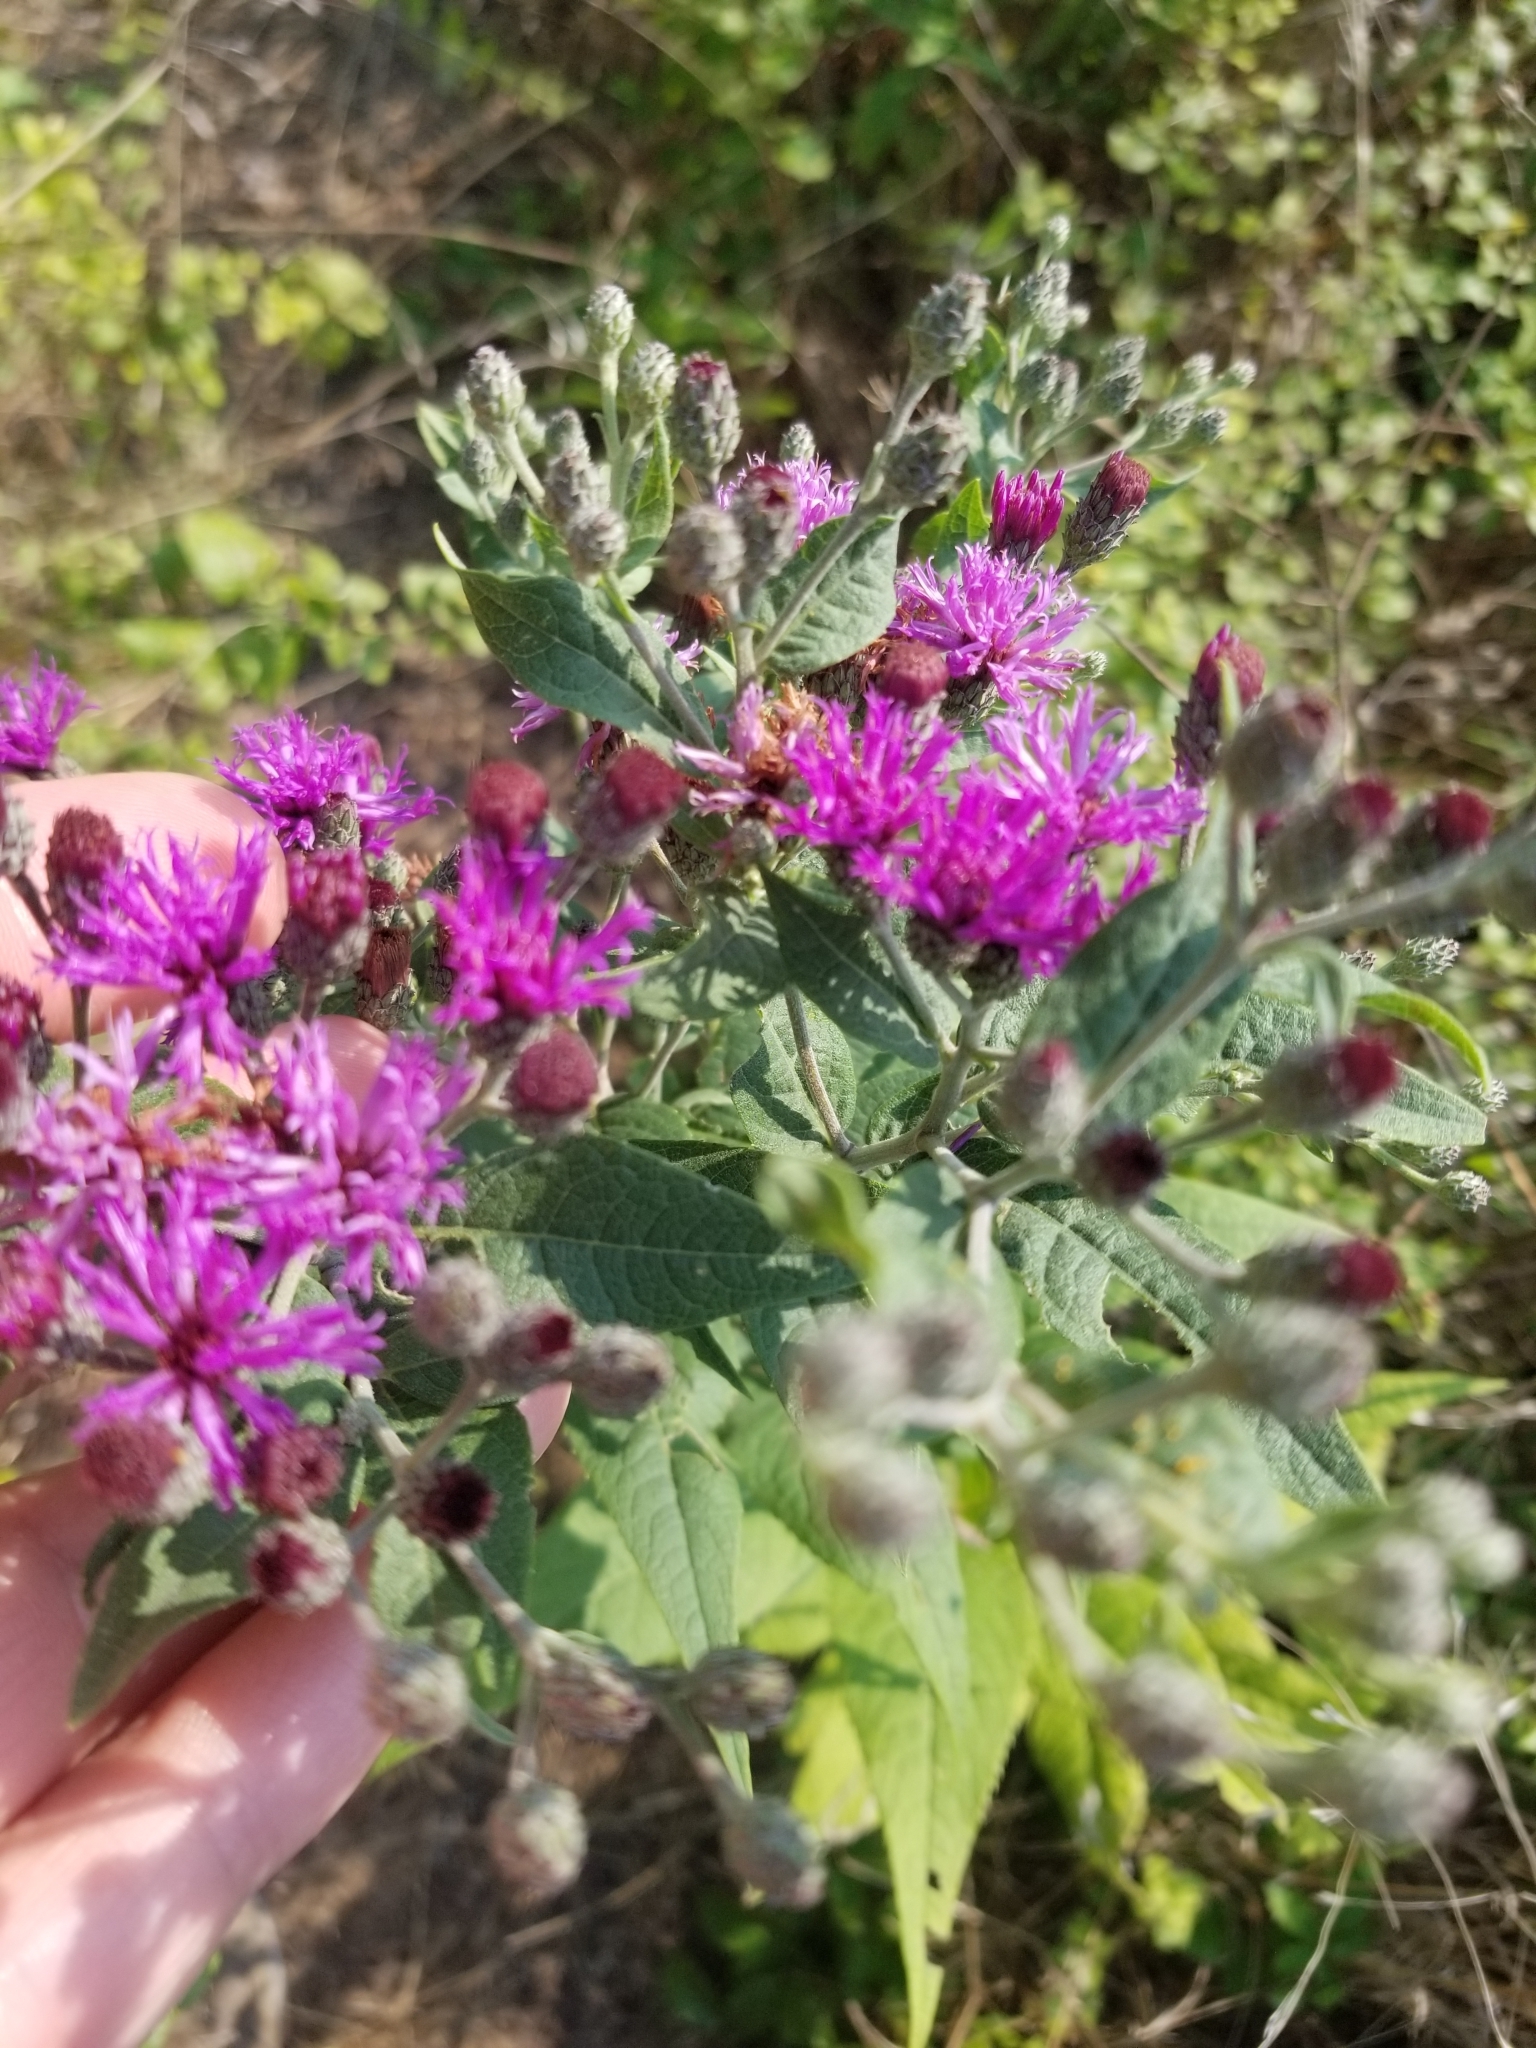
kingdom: Plantae
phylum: Tracheophyta
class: Magnoliopsida
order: Asterales
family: Asteraceae
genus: Vernonia
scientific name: Vernonia baldwinii
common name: Western ironweed
